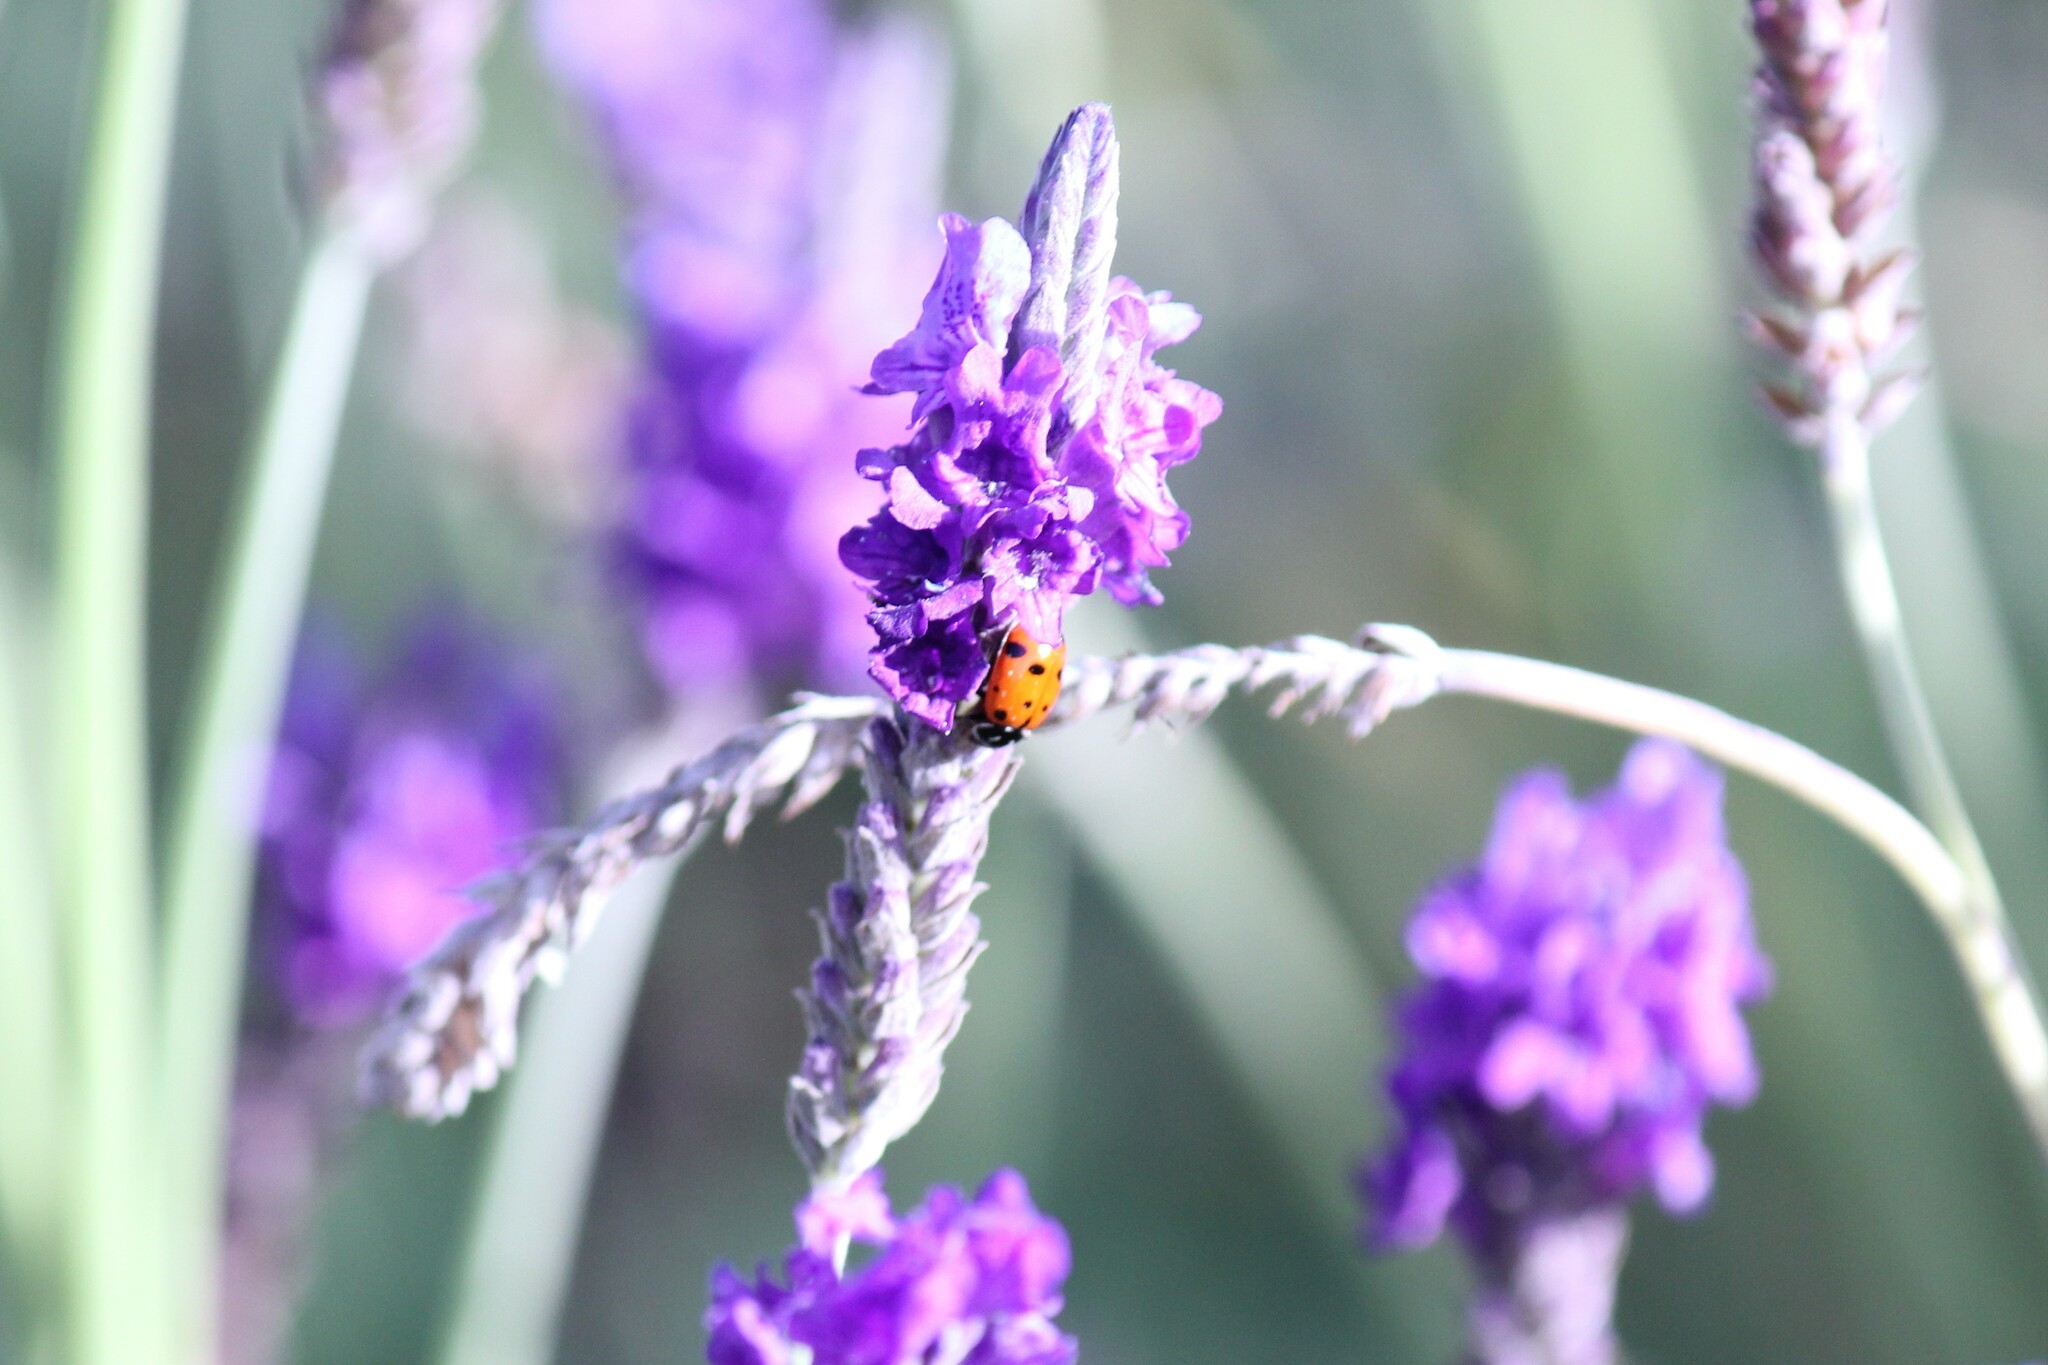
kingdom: Animalia
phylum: Arthropoda
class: Insecta
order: Coleoptera
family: Coccinellidae
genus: Hippodamia
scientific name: Hippodamia convergens
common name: Convergent lady beetle
